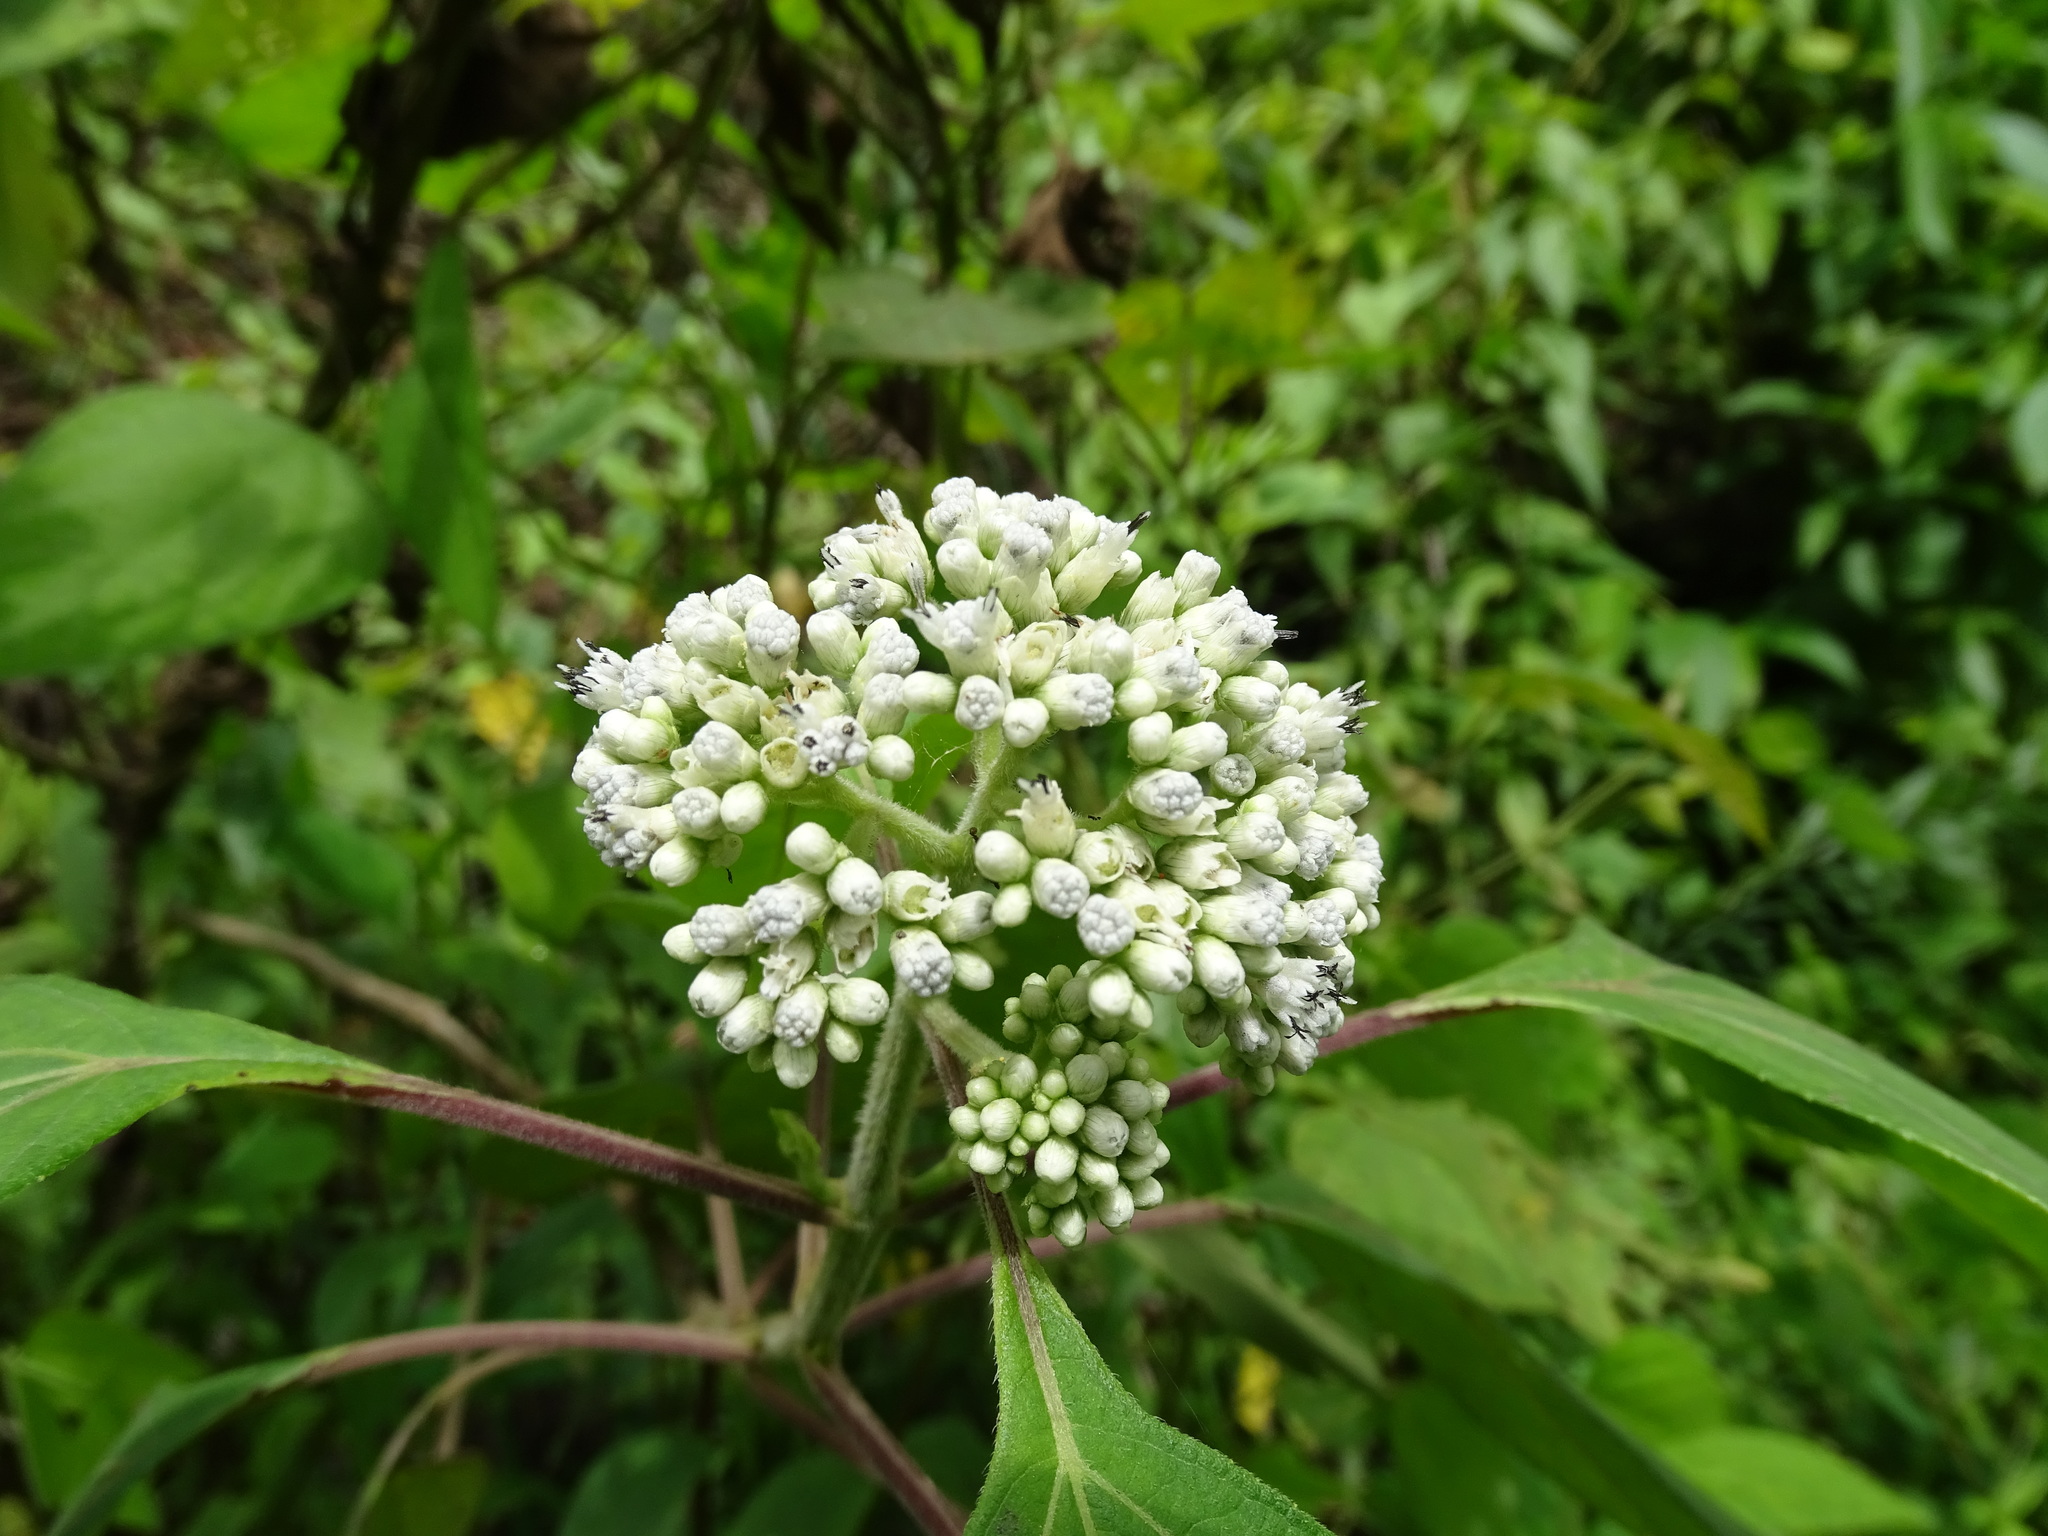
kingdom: Plantae
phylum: Tracheophyta
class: Magnoliopsida
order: Asterales
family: Asteraceae
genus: Clibadium
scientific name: Clibadium arboreum
